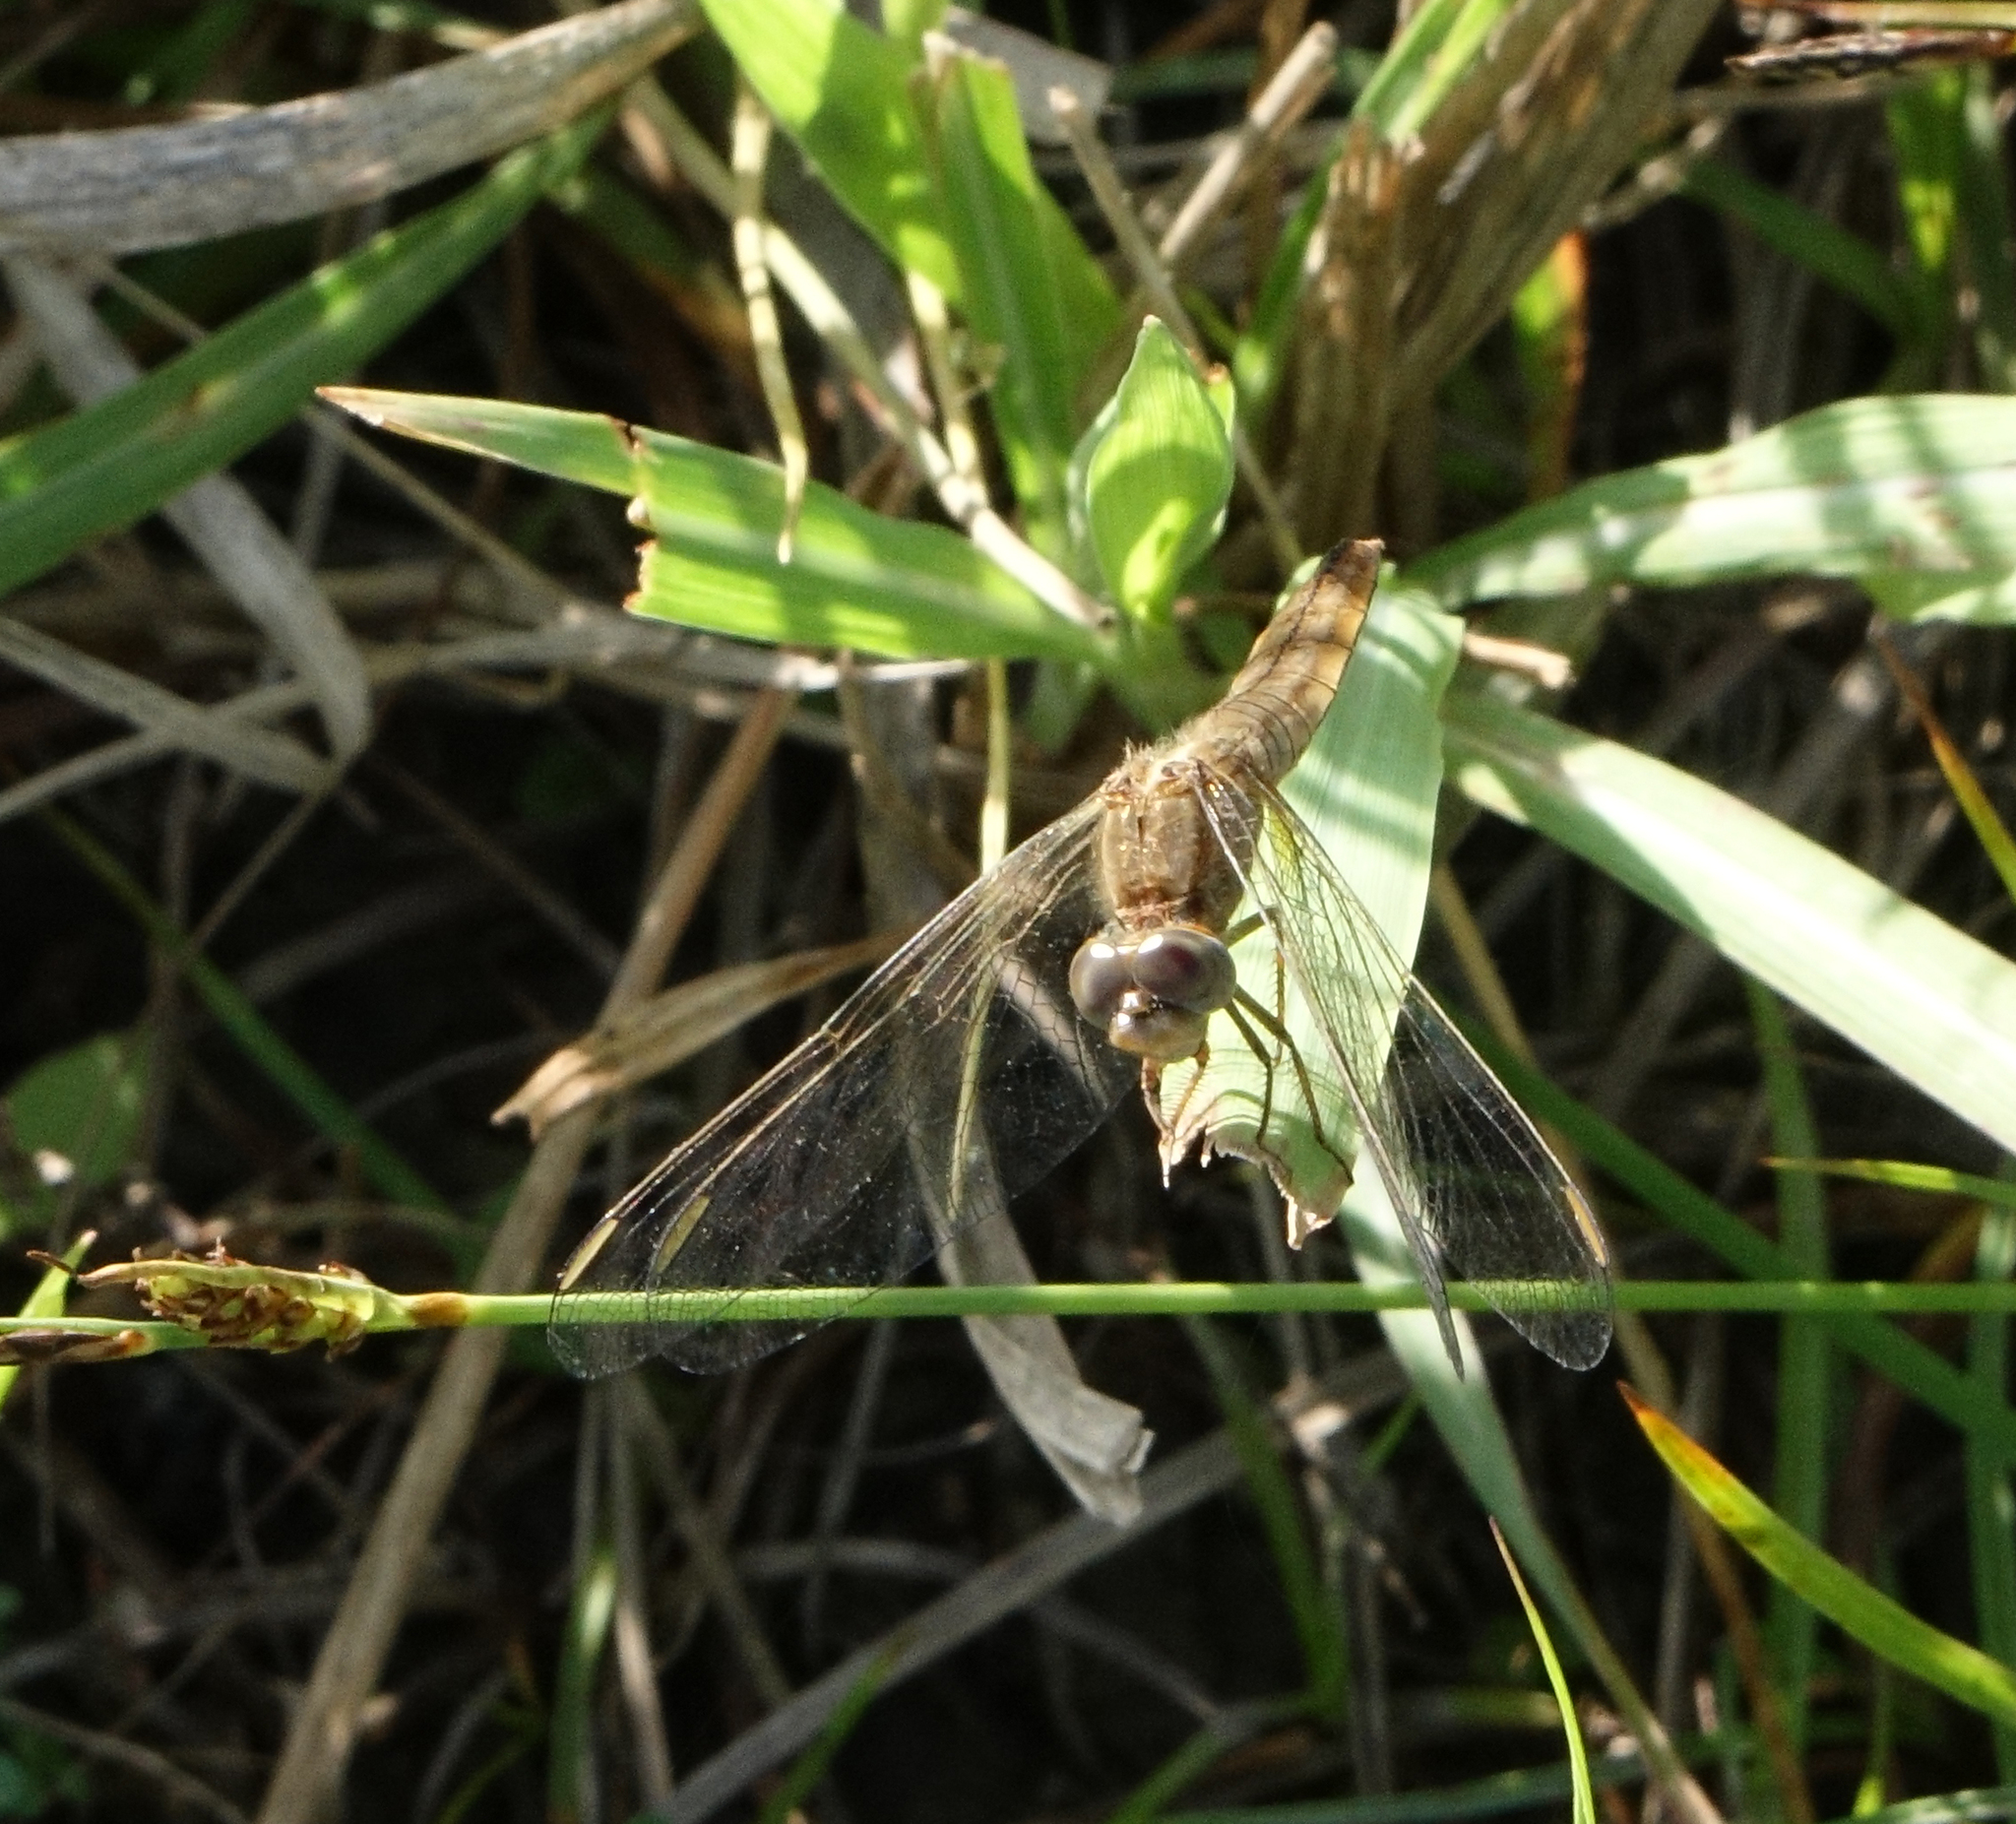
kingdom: Animalia
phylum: Arthropoda
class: Insecta
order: Odonata
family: Libellulidae
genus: Crocothemis
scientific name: Crocothemis erythraea
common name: Scarlet dragonfly
